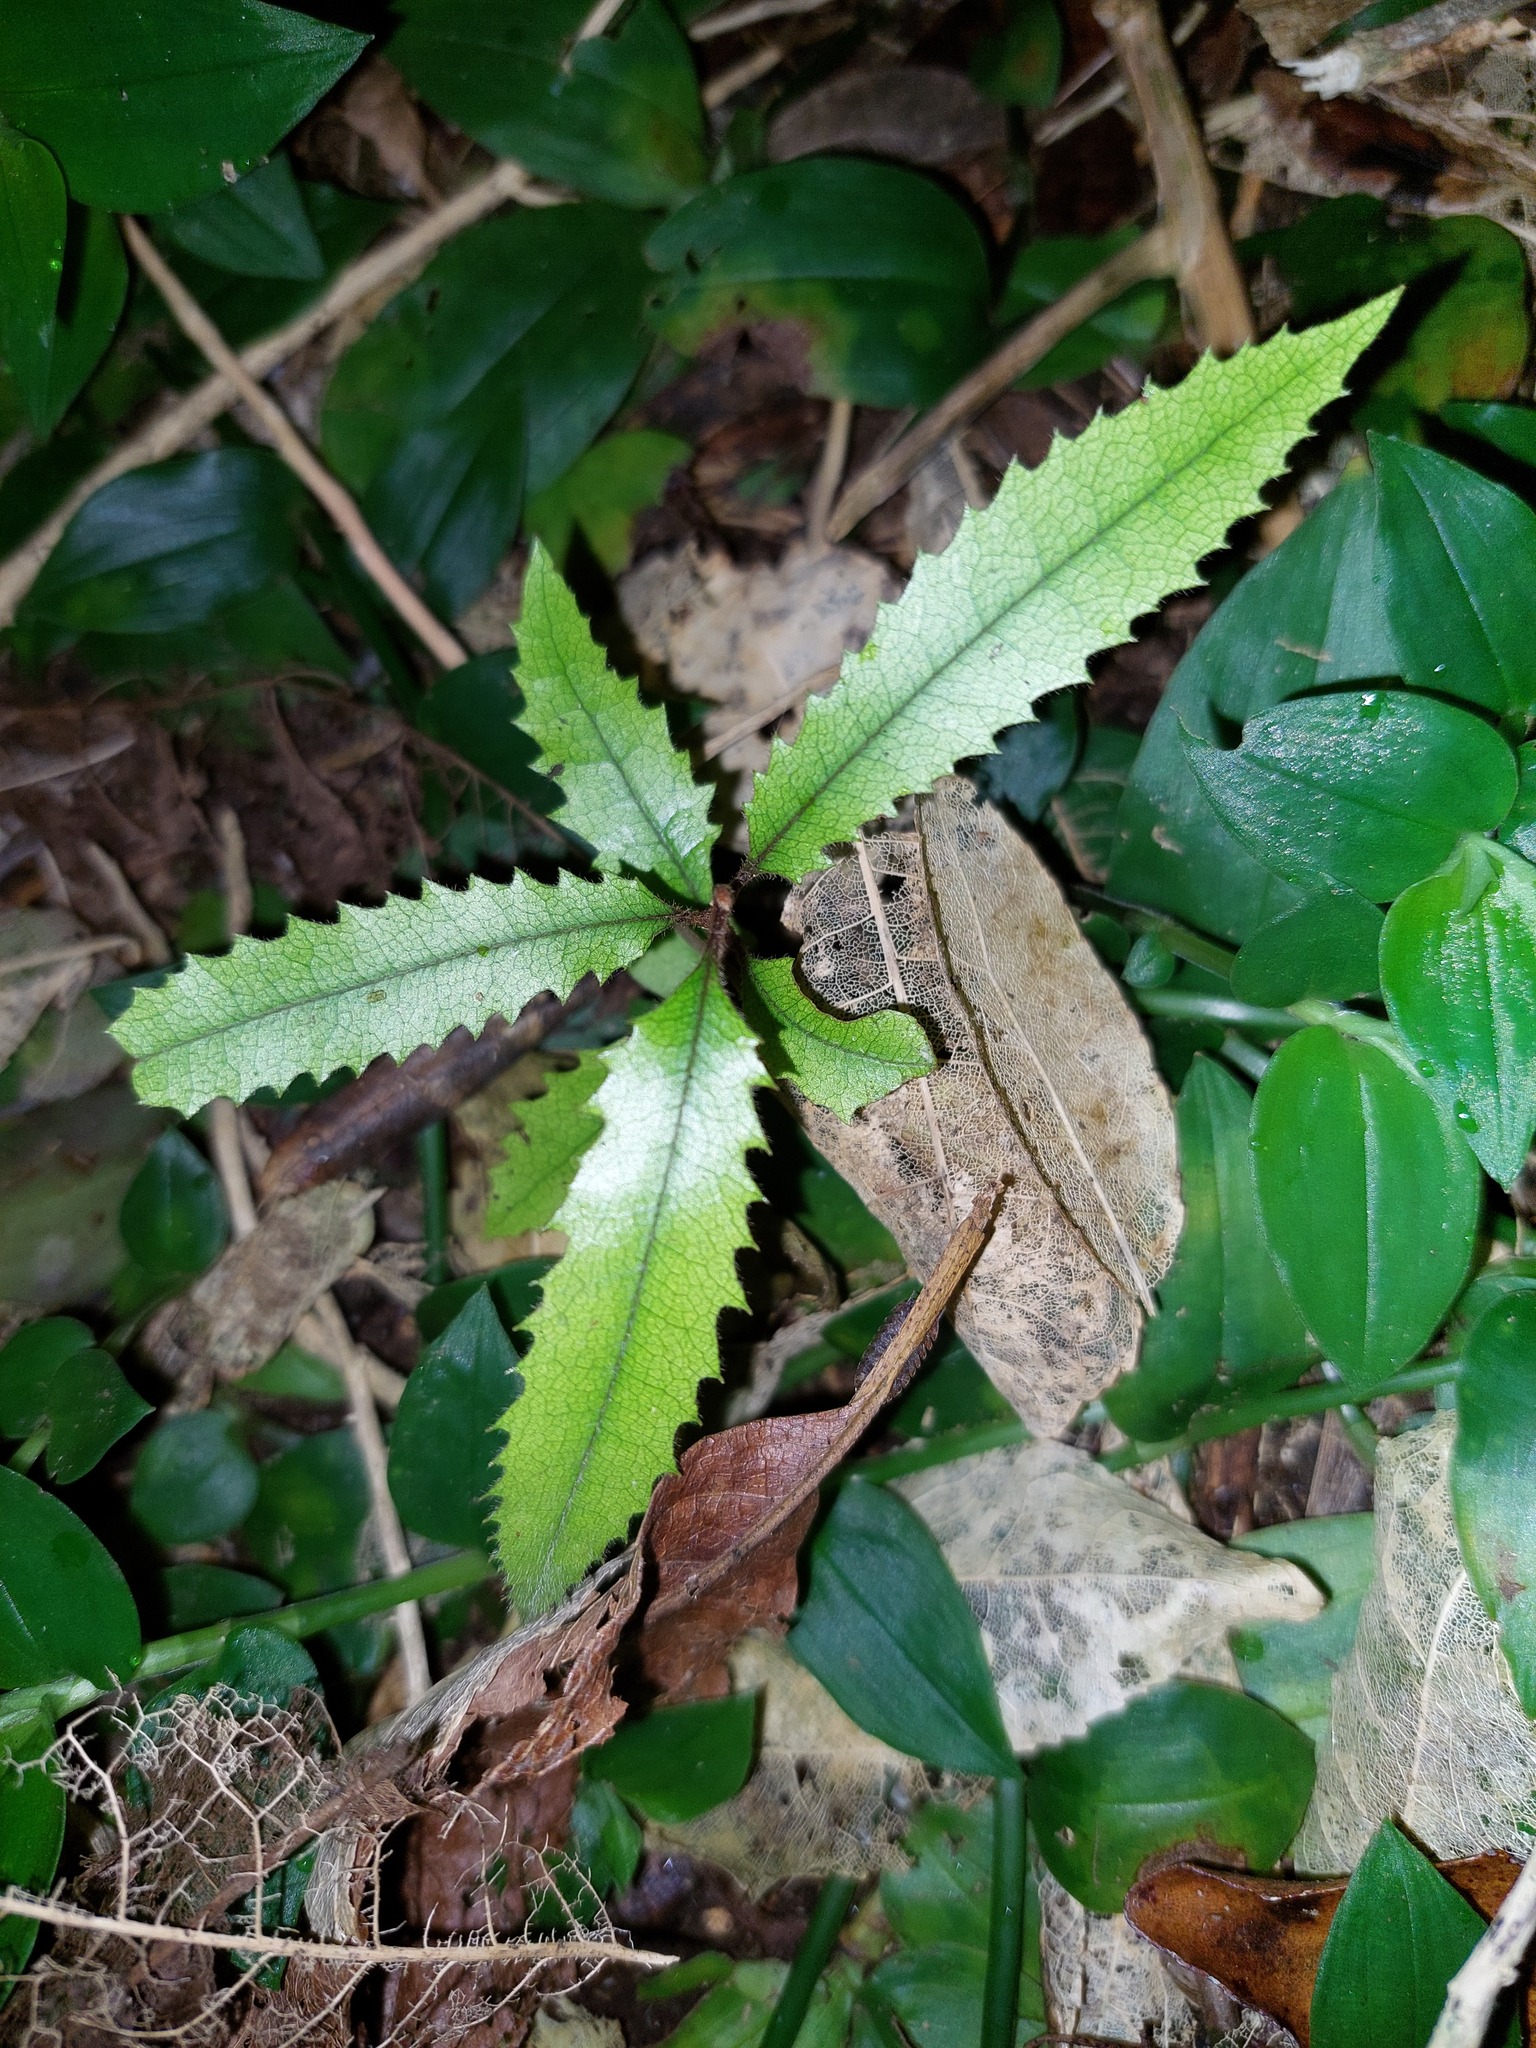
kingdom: Plantae
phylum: Tracheophyta
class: Magnoliopsida
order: Proteales
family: Proteaceae
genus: Knightia
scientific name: Knightia excelsa
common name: New zealand-honeysuckle
